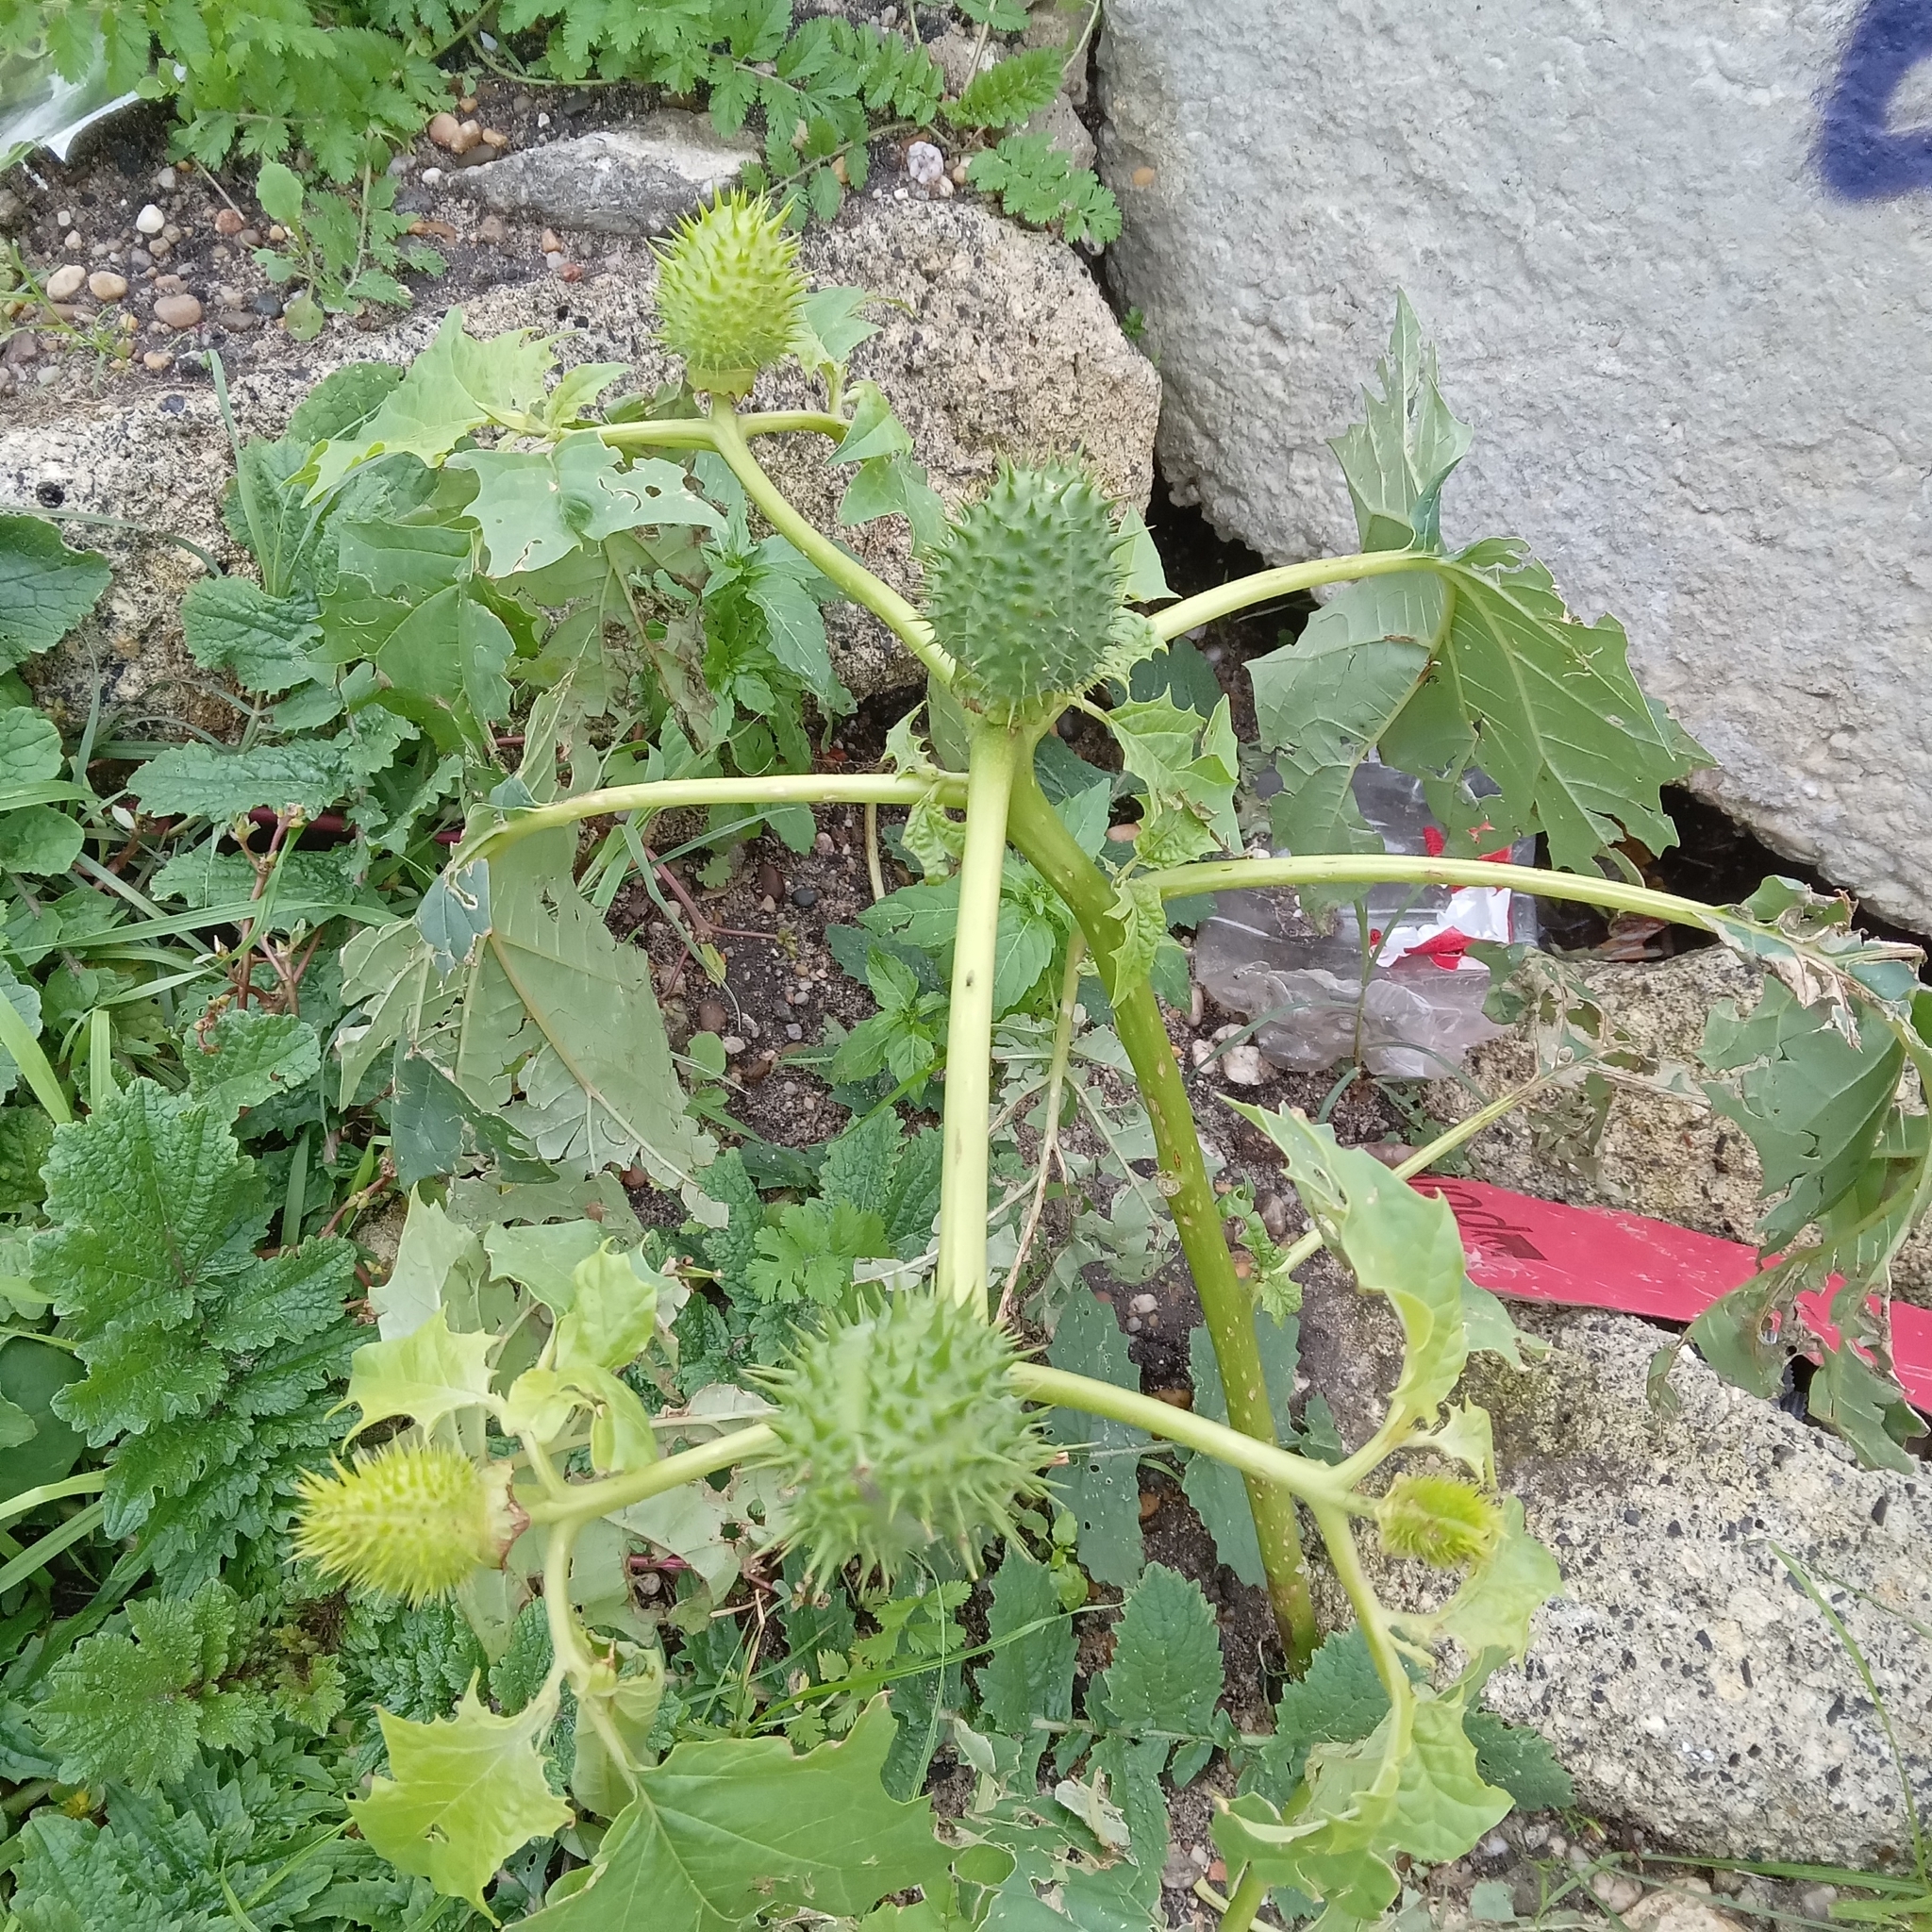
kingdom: Plantae
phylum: Tracheophyta
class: Magnoliopsida
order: Solanales
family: Solanaceae
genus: Datura
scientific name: Datura stramonium
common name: Thorn-apple
